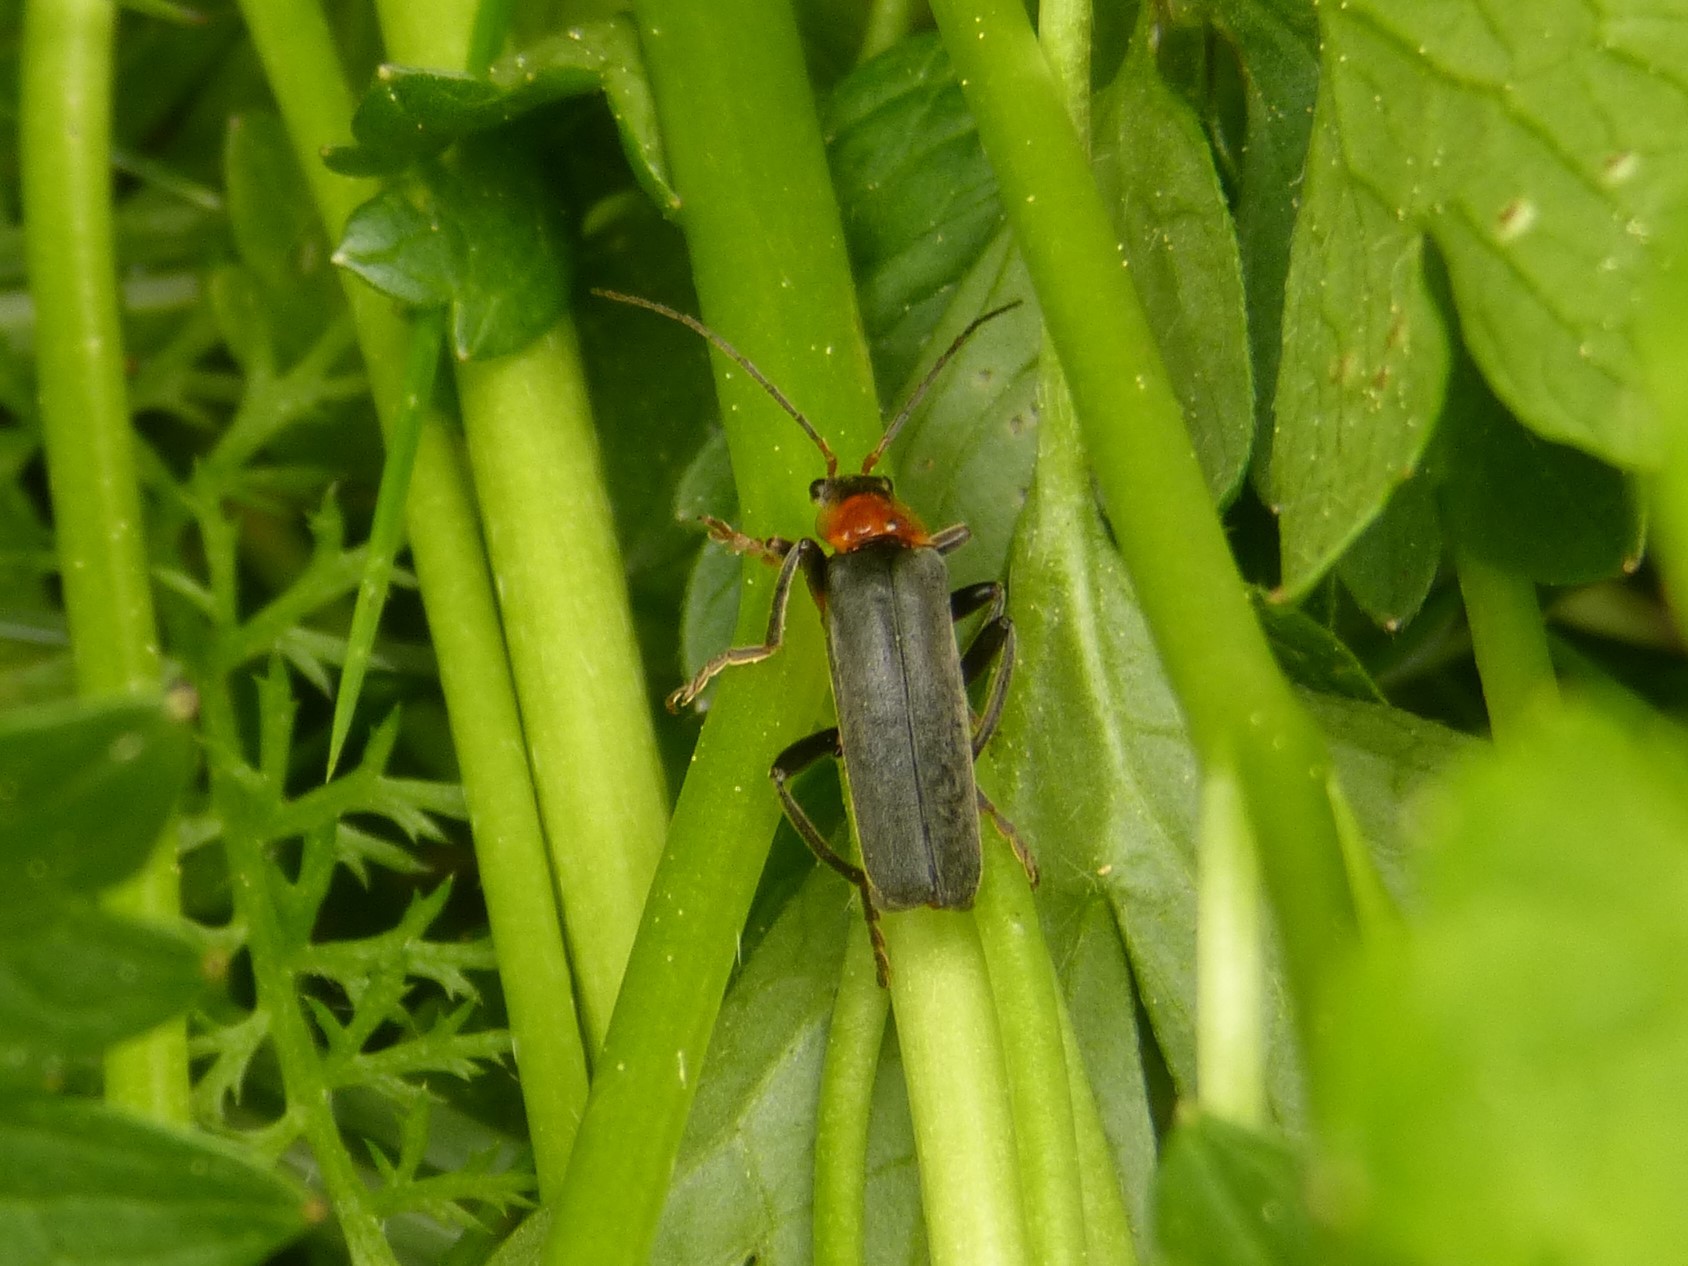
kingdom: Animalia
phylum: Arthropoda
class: Insecta
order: Coleoptera
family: Cantharidae
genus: Cantharis
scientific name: Cantharis pellucida
